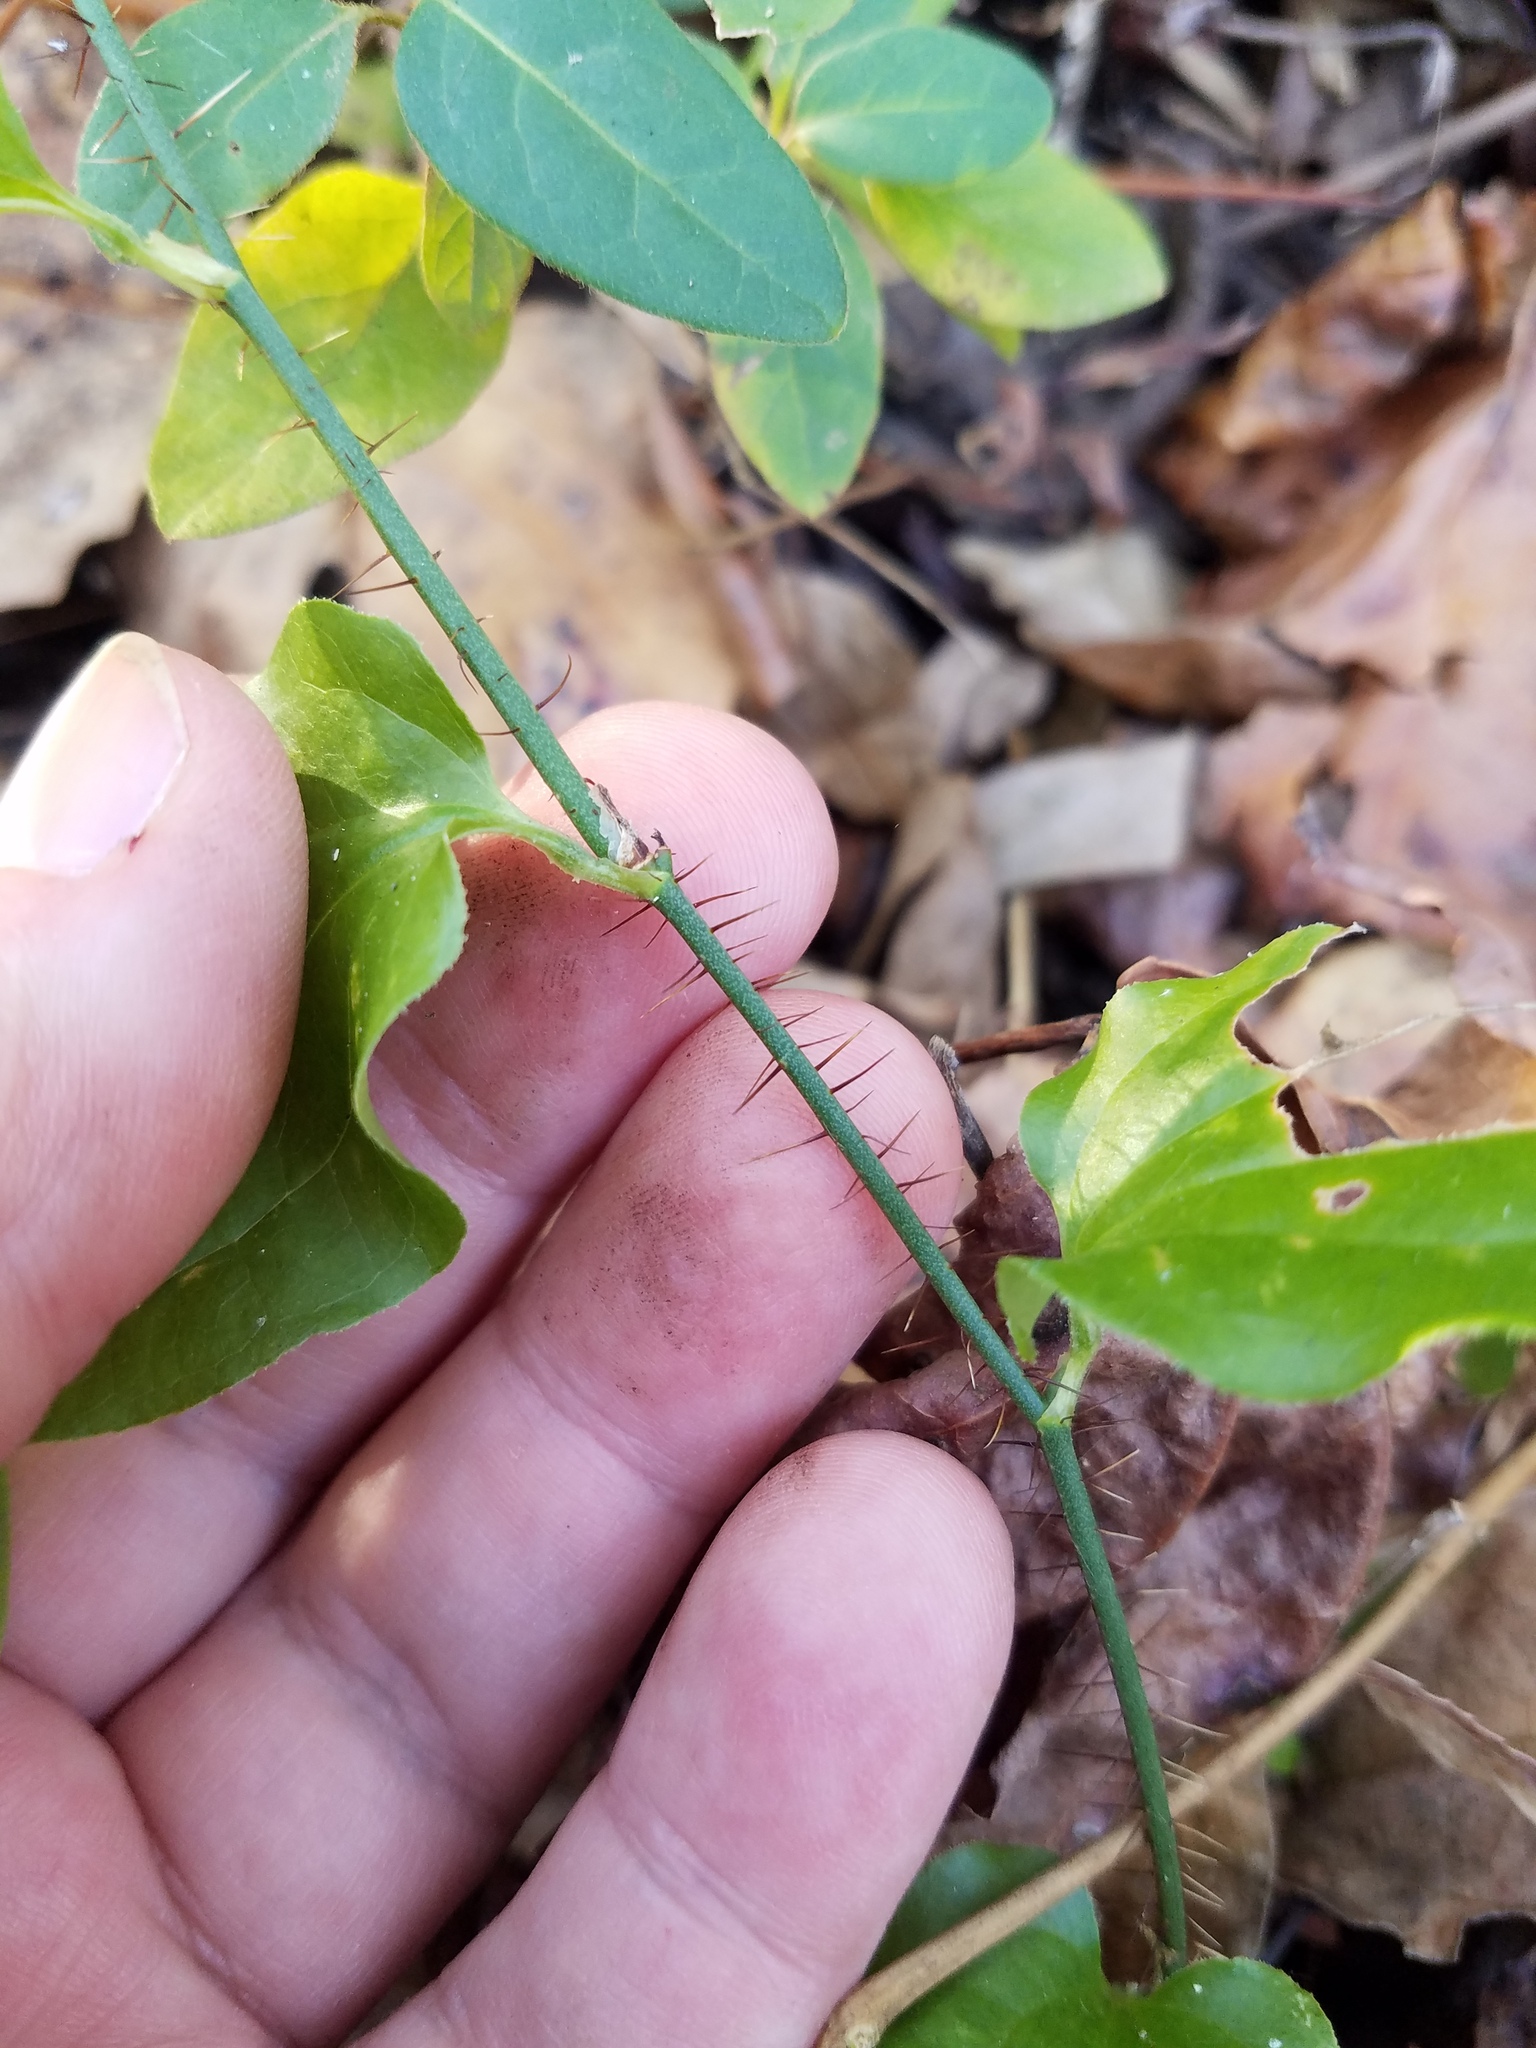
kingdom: Plantae
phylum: Tracheophyta
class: Liliopsida
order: Liliales
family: Smilacaceae
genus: Smilax
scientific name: Smilax tamnoides
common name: Hellfetter
